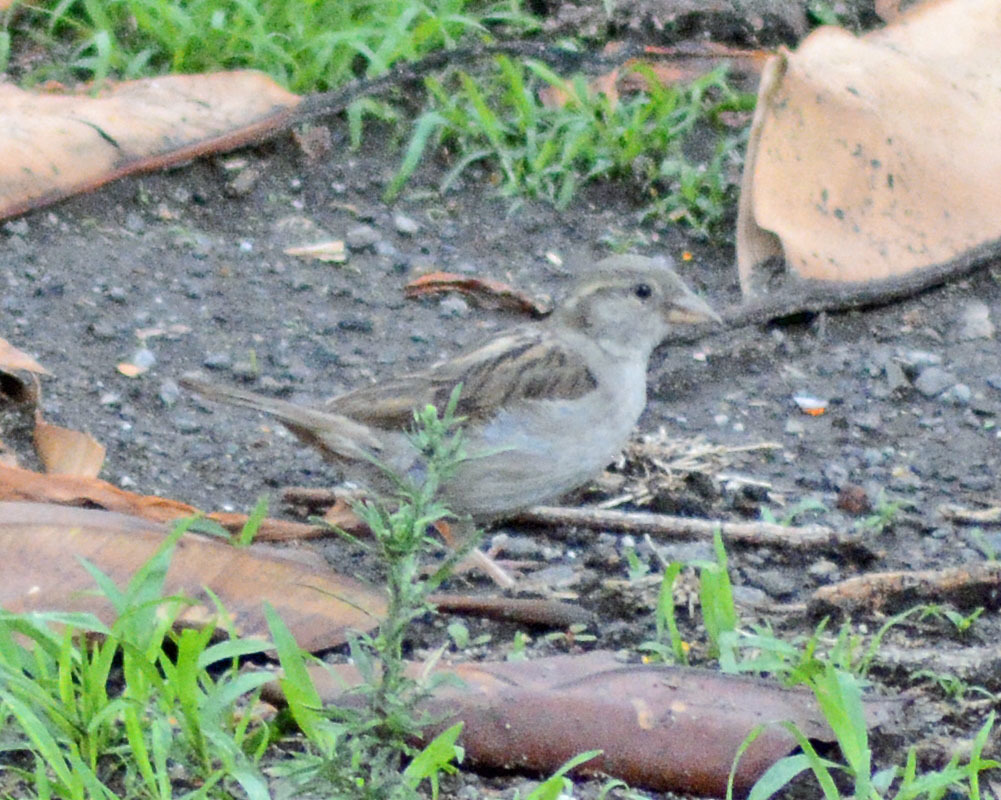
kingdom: Animalia
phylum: Chordata
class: Aves
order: Passeriformes
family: Passeridae
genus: Passer
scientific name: Passer domesticus
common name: House sparrow
